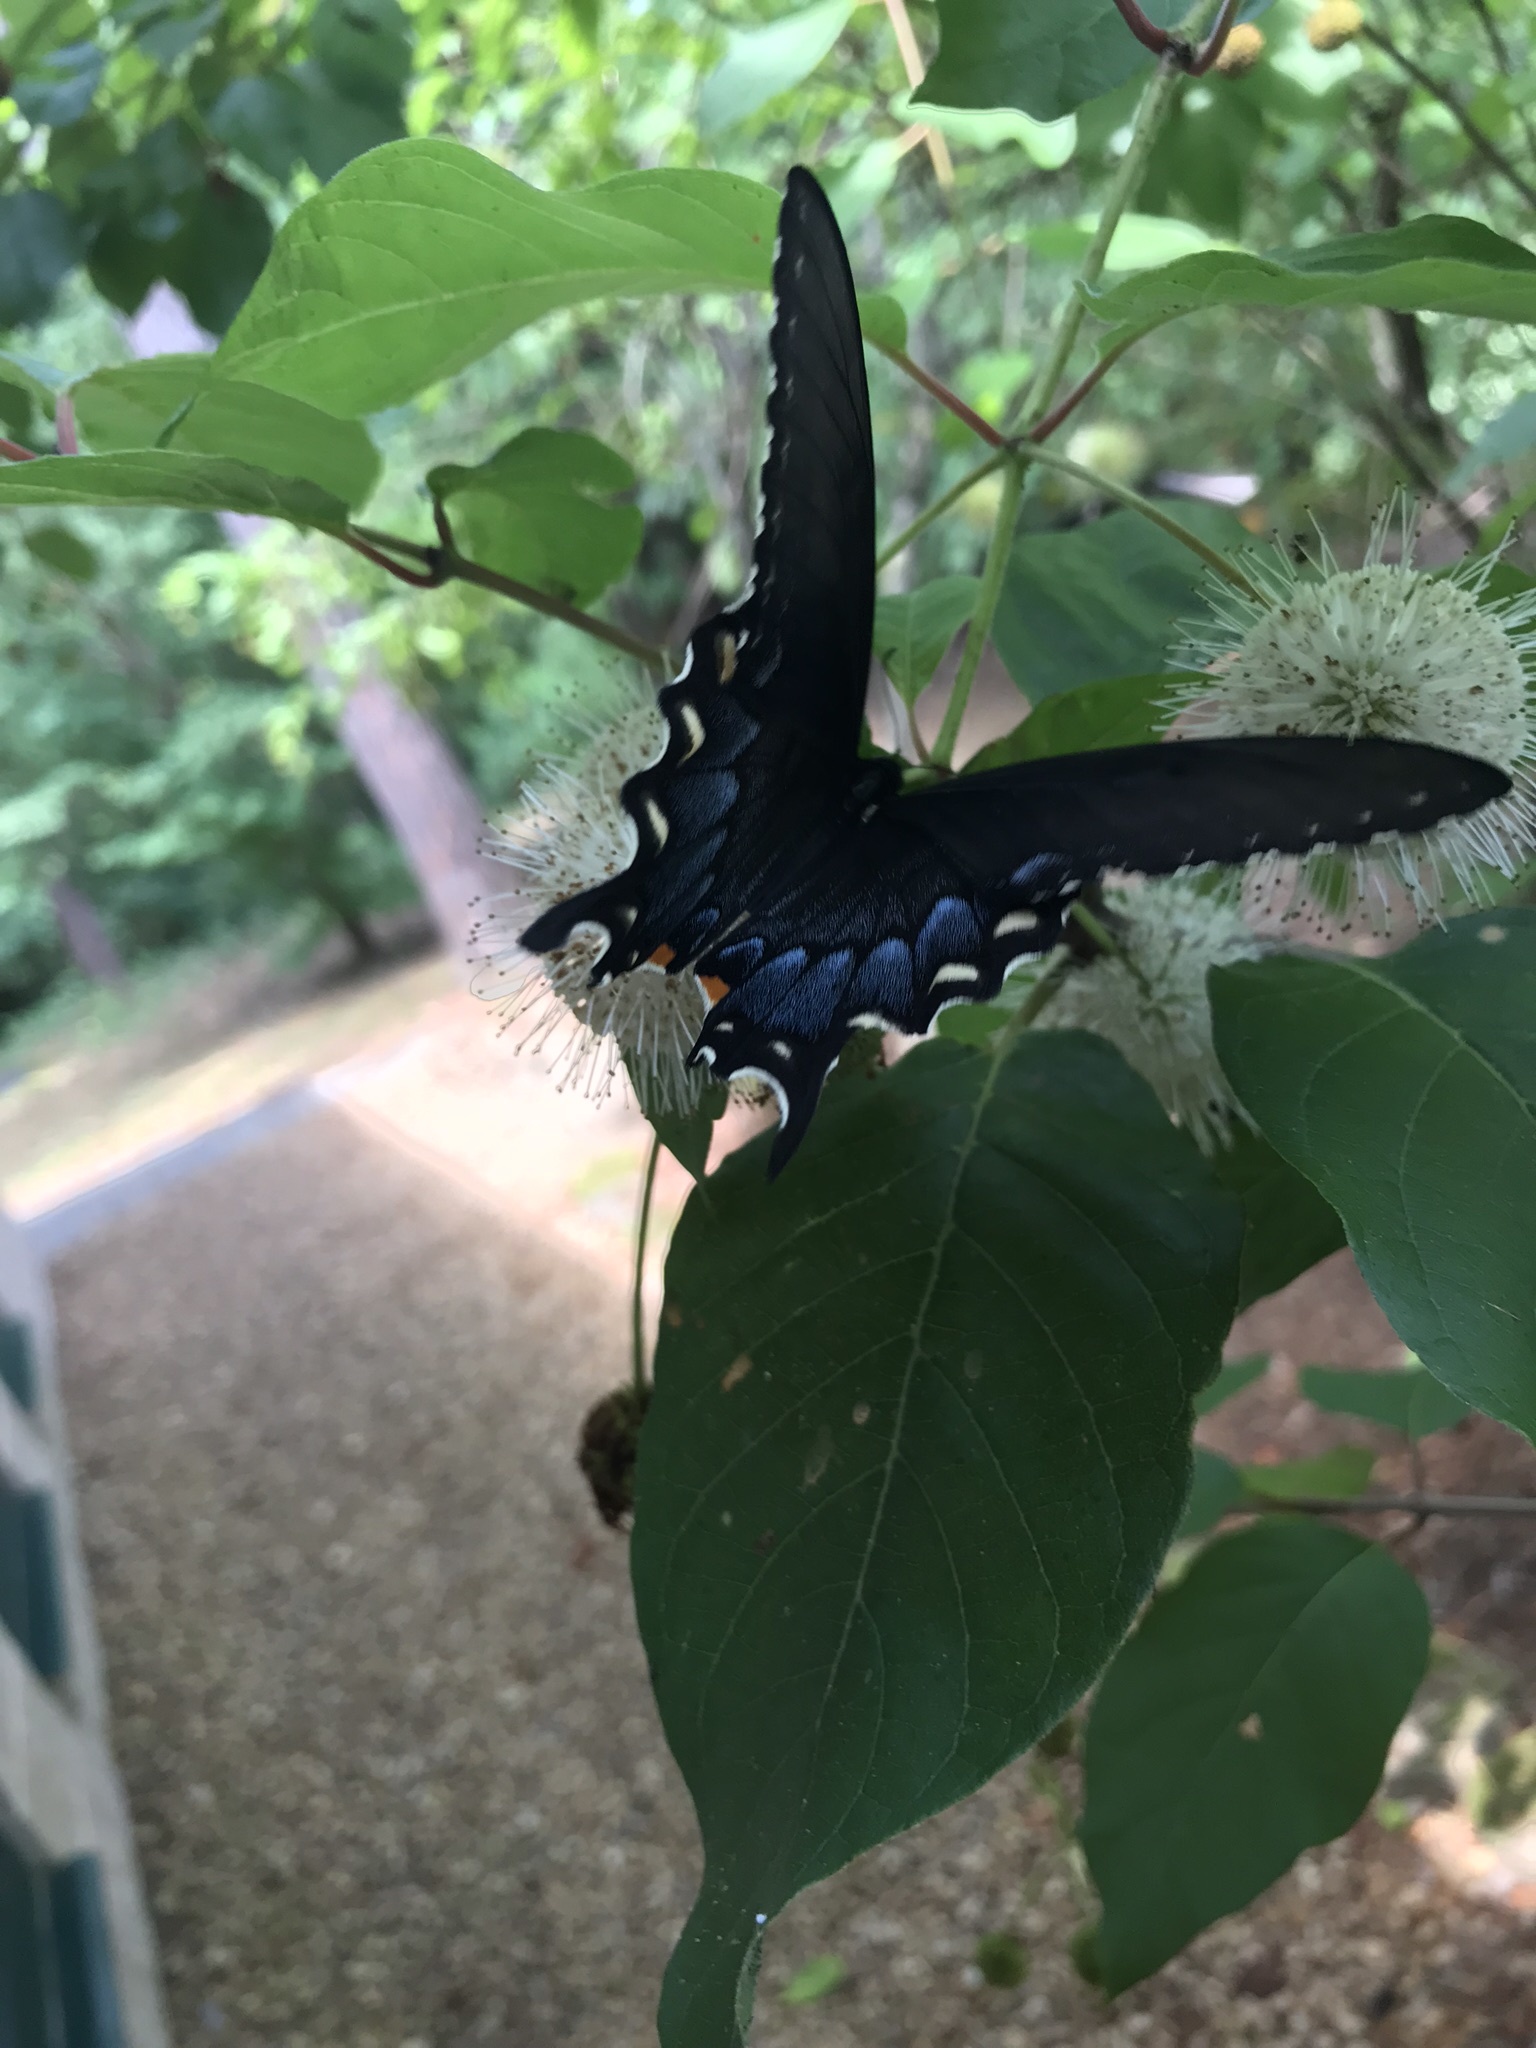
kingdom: Animalia
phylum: Arthropoda
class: Insecta
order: Lepidoptera
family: Papilionidae
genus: Papilio
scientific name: Papilio glaucus
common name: Tiger swallowtail
